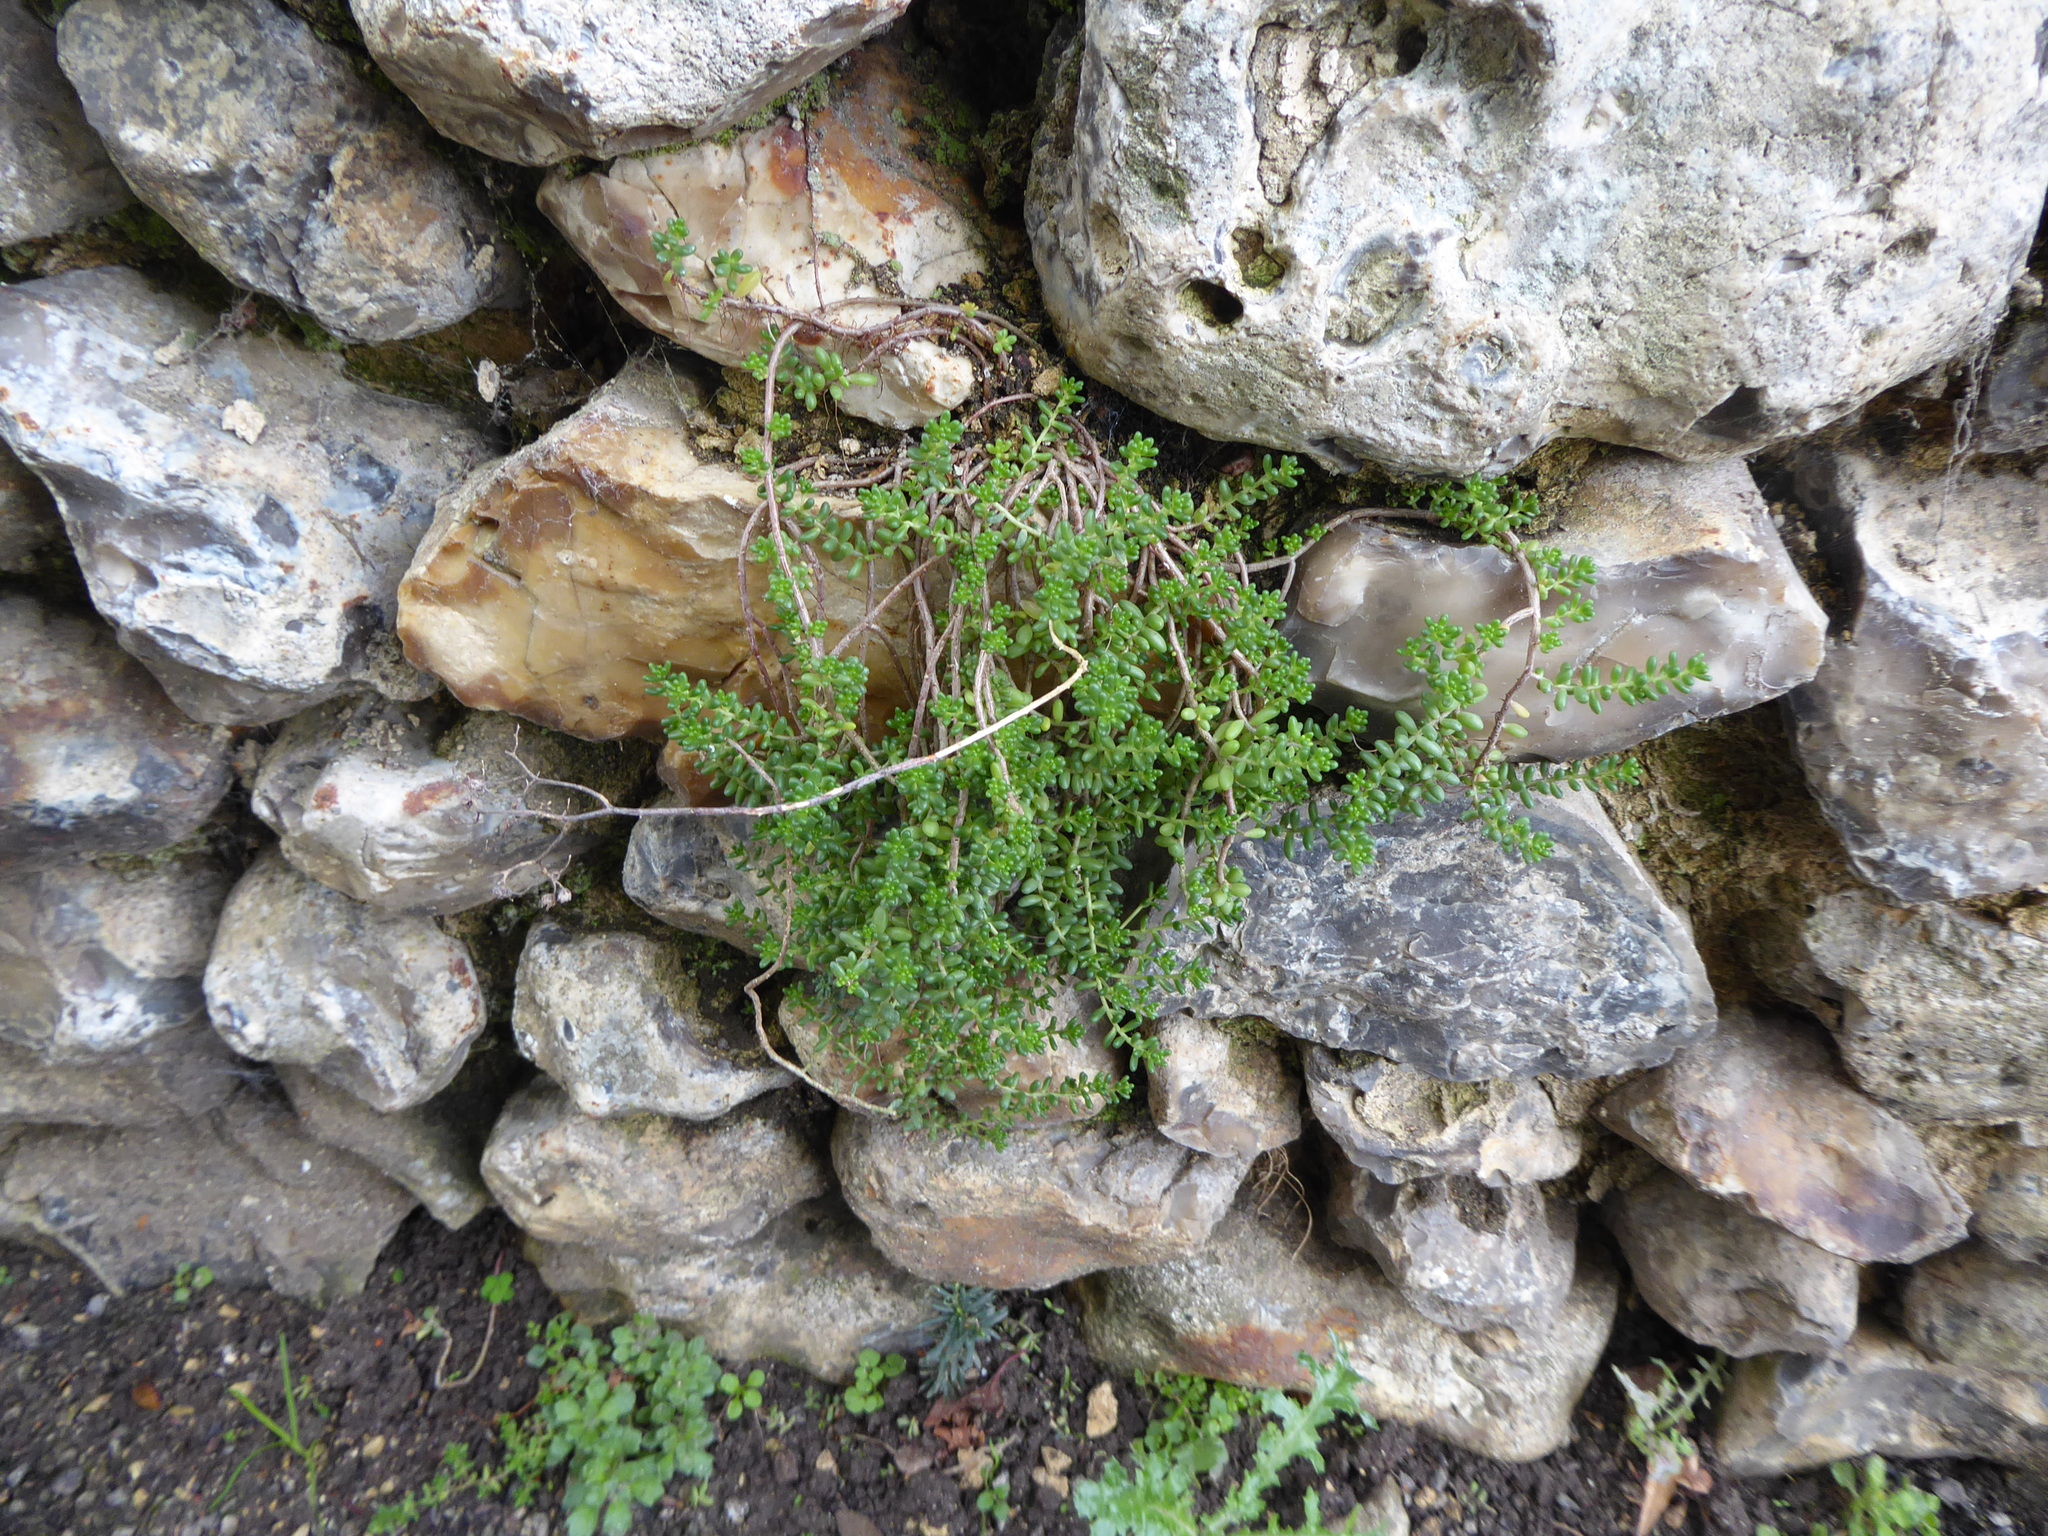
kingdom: Plantae
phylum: Tracheophyta
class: Magnoliopsida
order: Saxifragales
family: Crassulaceae
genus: Sedum
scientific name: Sedum album
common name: White stonecrop
